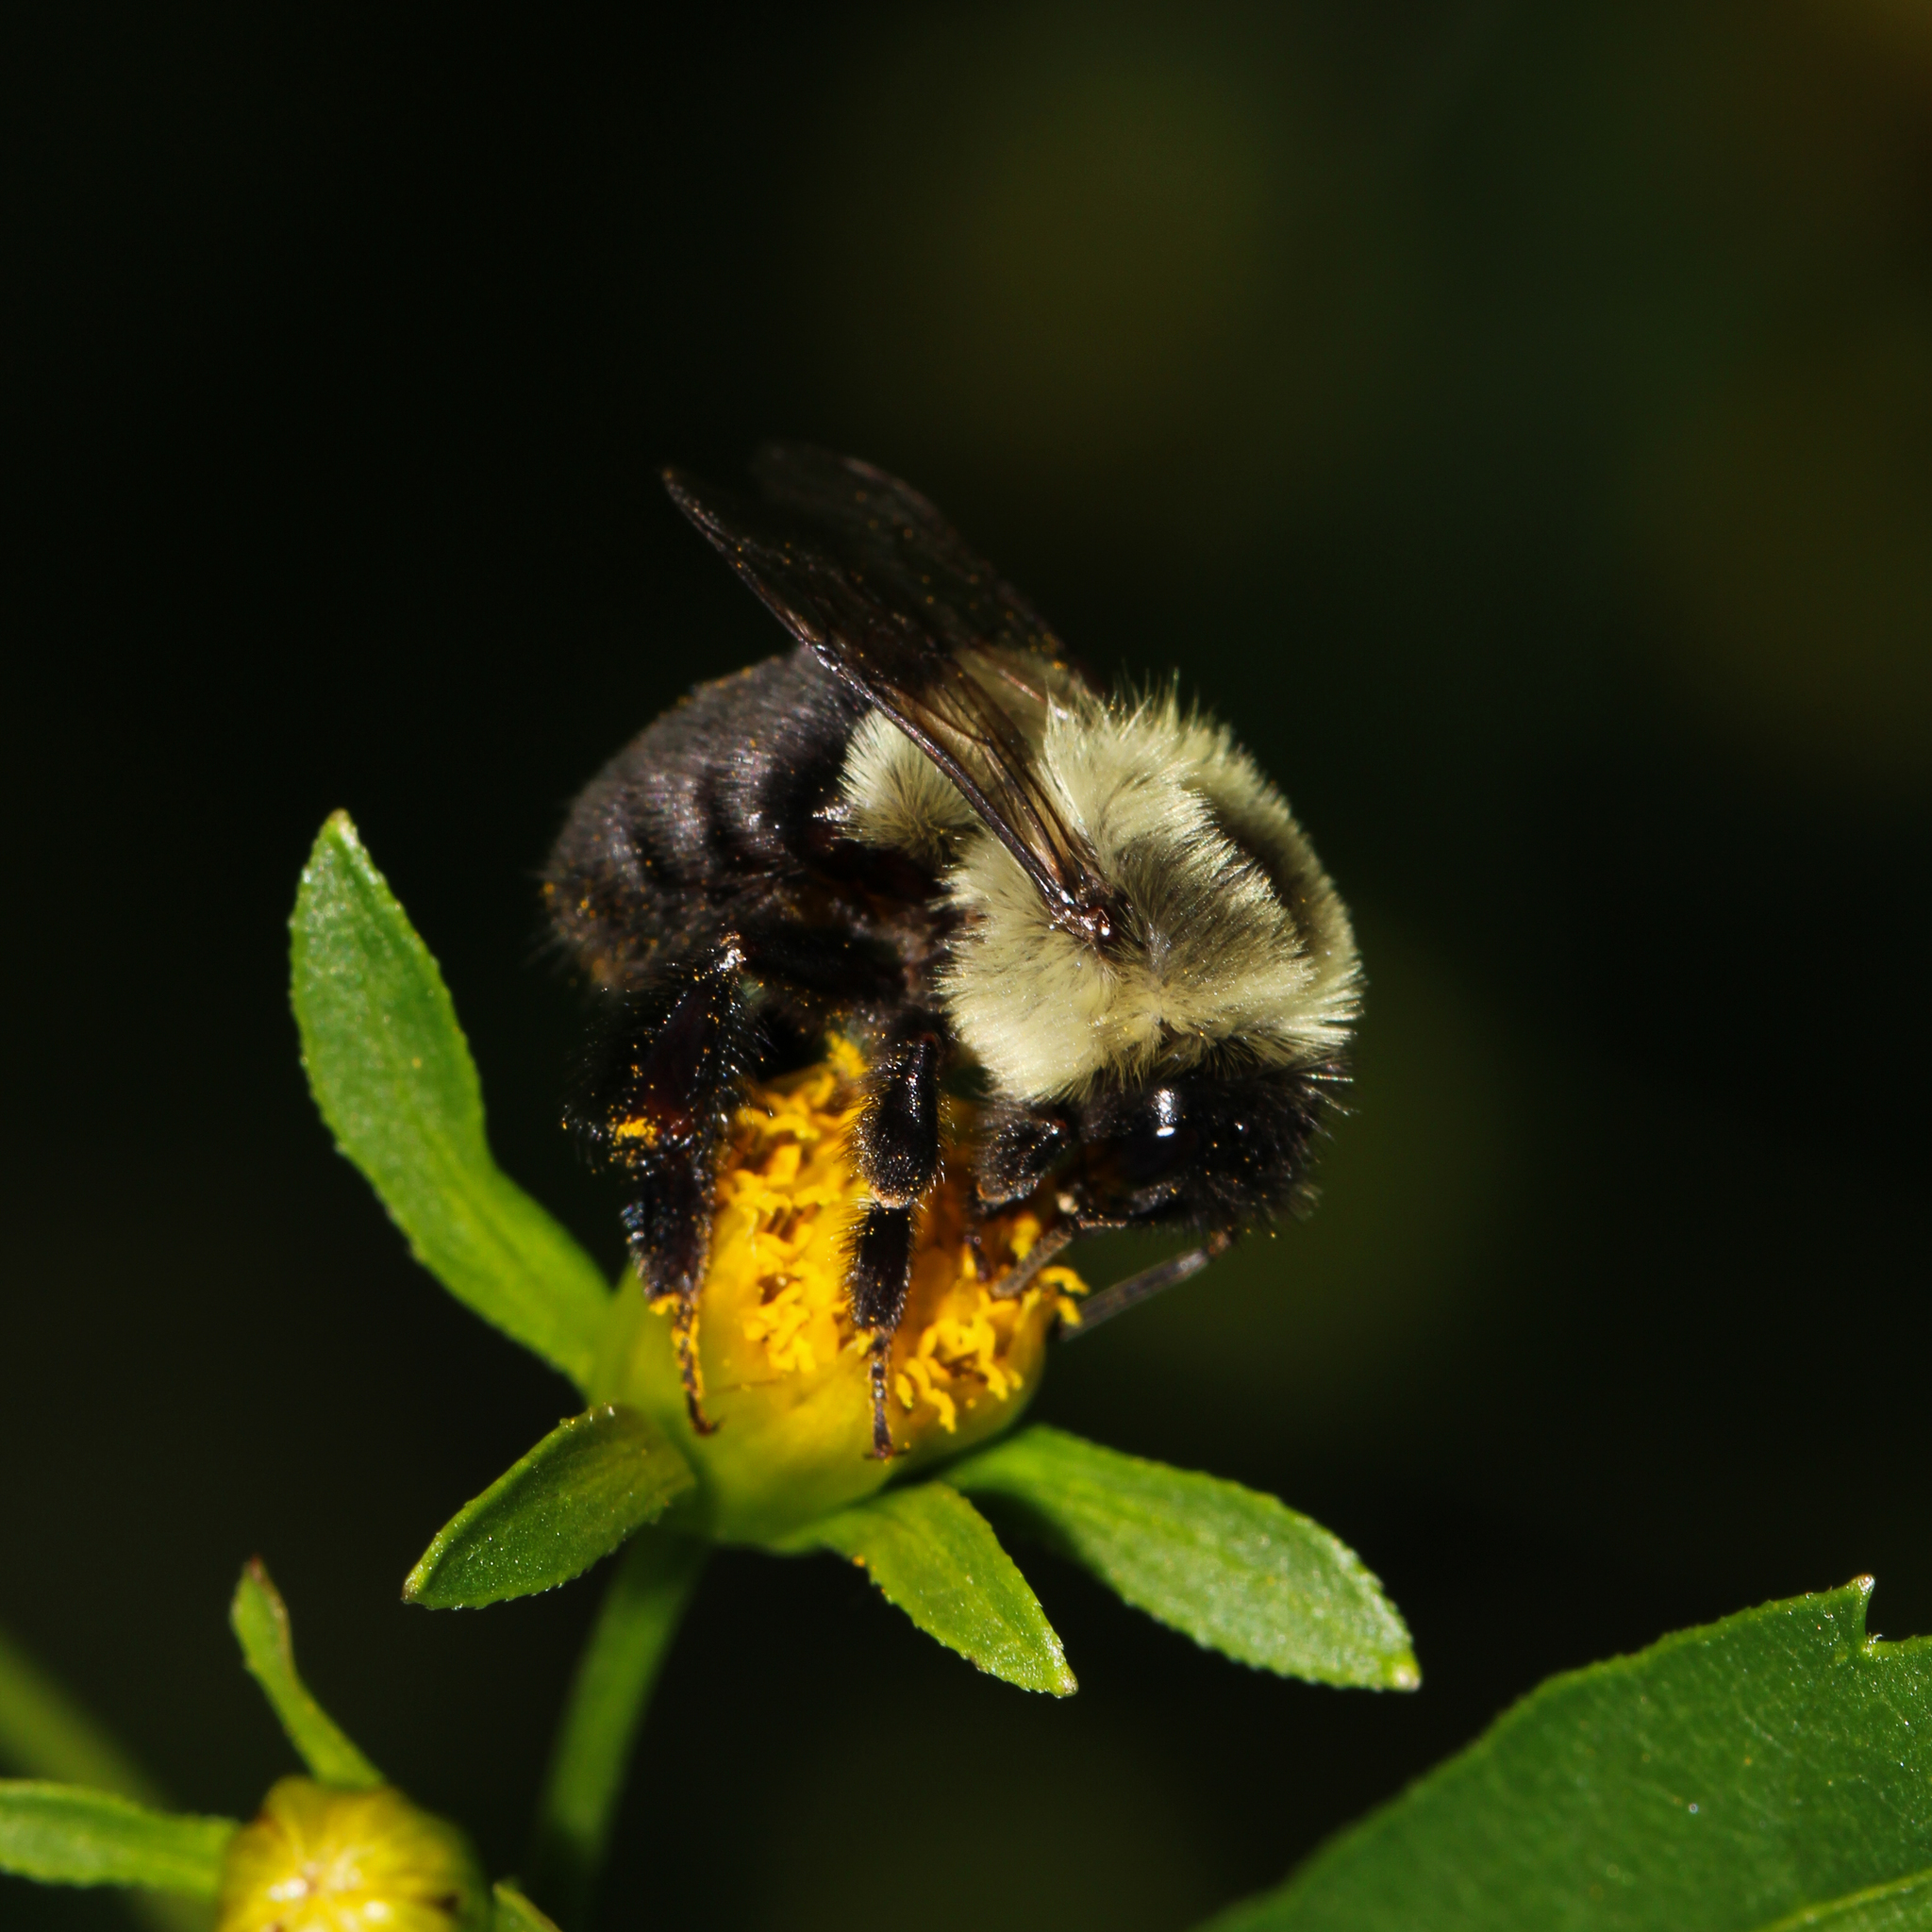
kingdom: Animalia
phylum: Arthropoda
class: Insecta
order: Hymenoptera
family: Apidae
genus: Bombus
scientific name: Bombus impatiens
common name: Common eastern bumble bee
